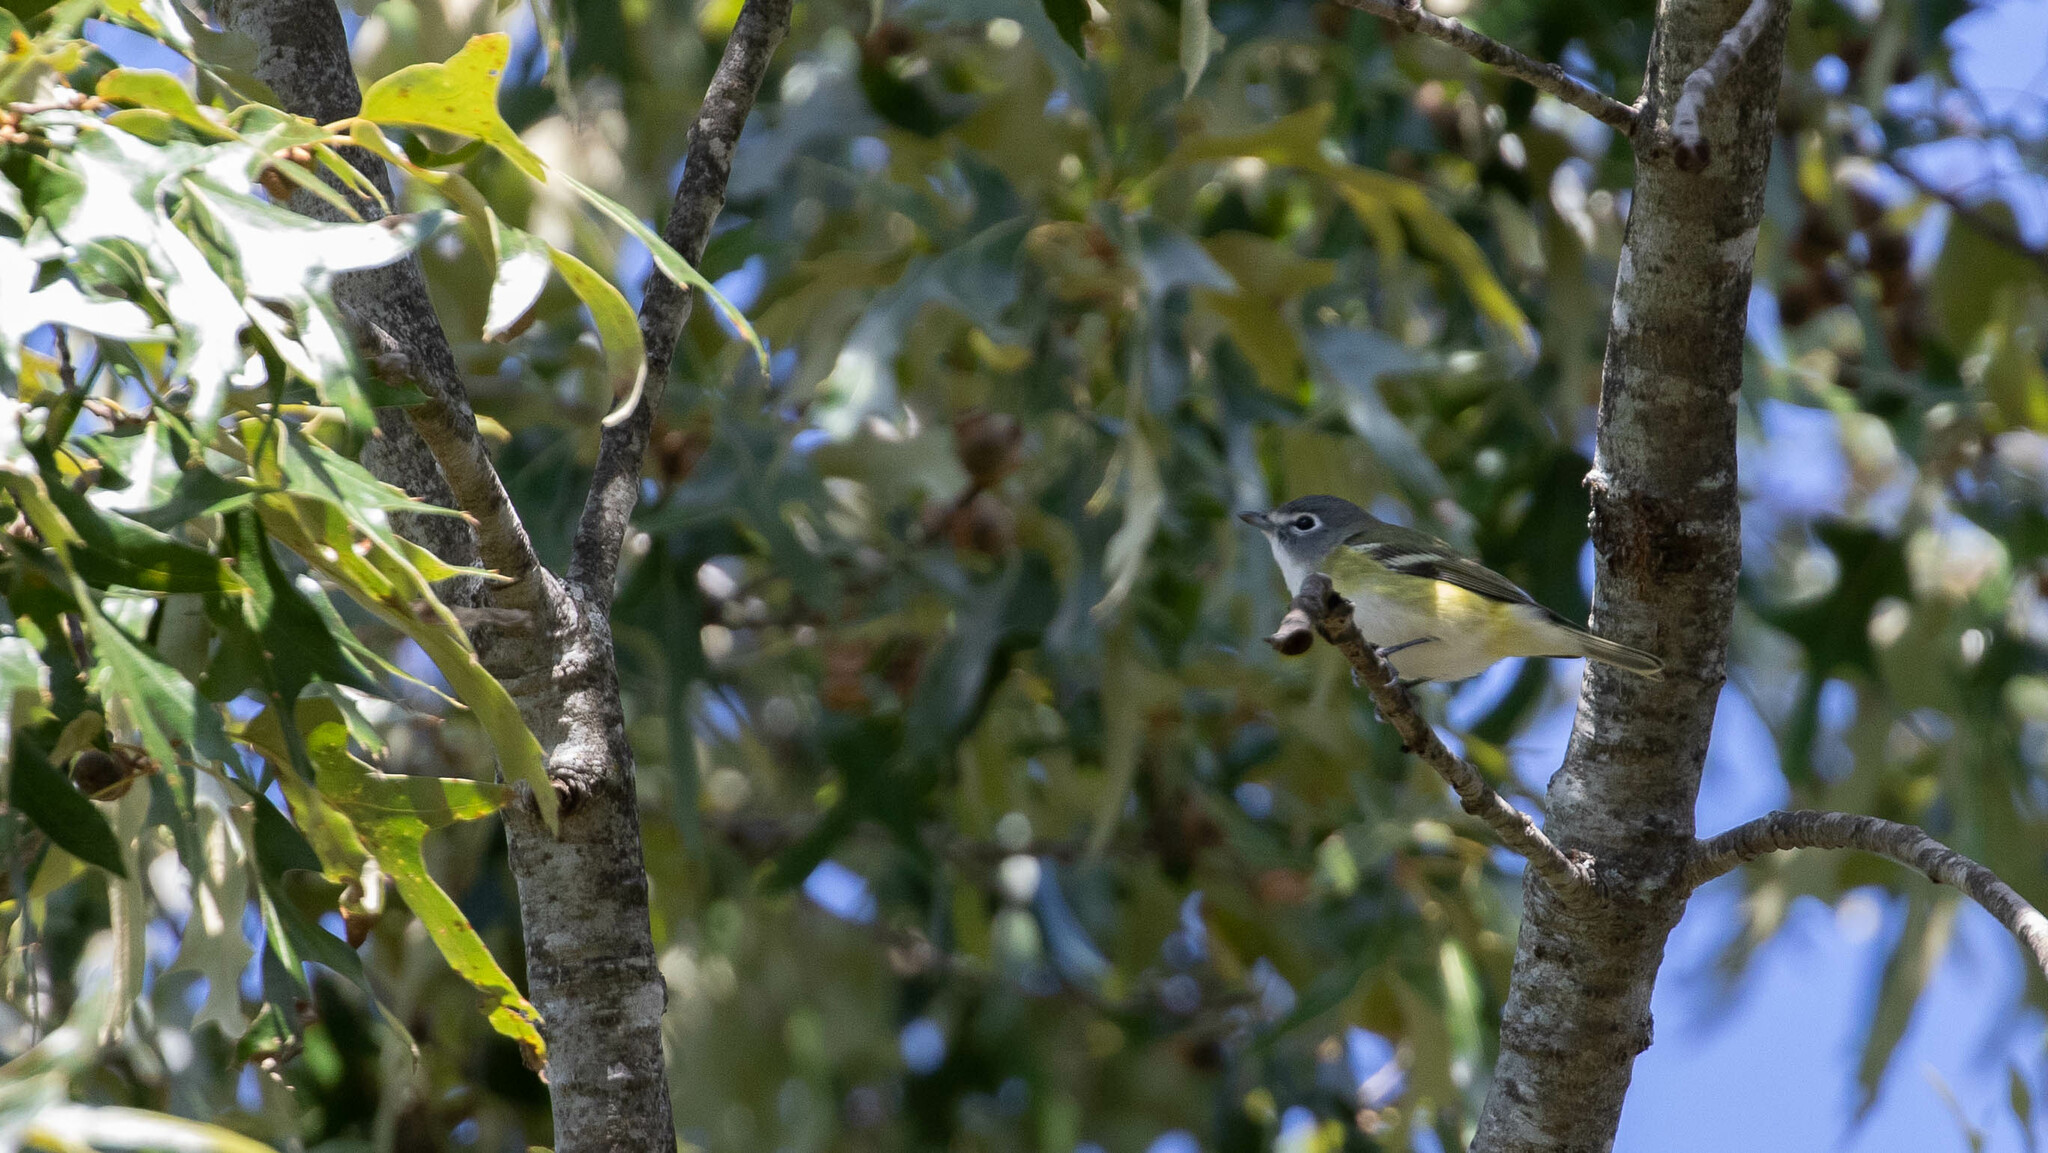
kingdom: Animalia
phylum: Chordata
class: Aves
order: Passeriformes
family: Vireonidae
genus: Vireo
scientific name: Vireo solitarius
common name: Blue-headed vireo
